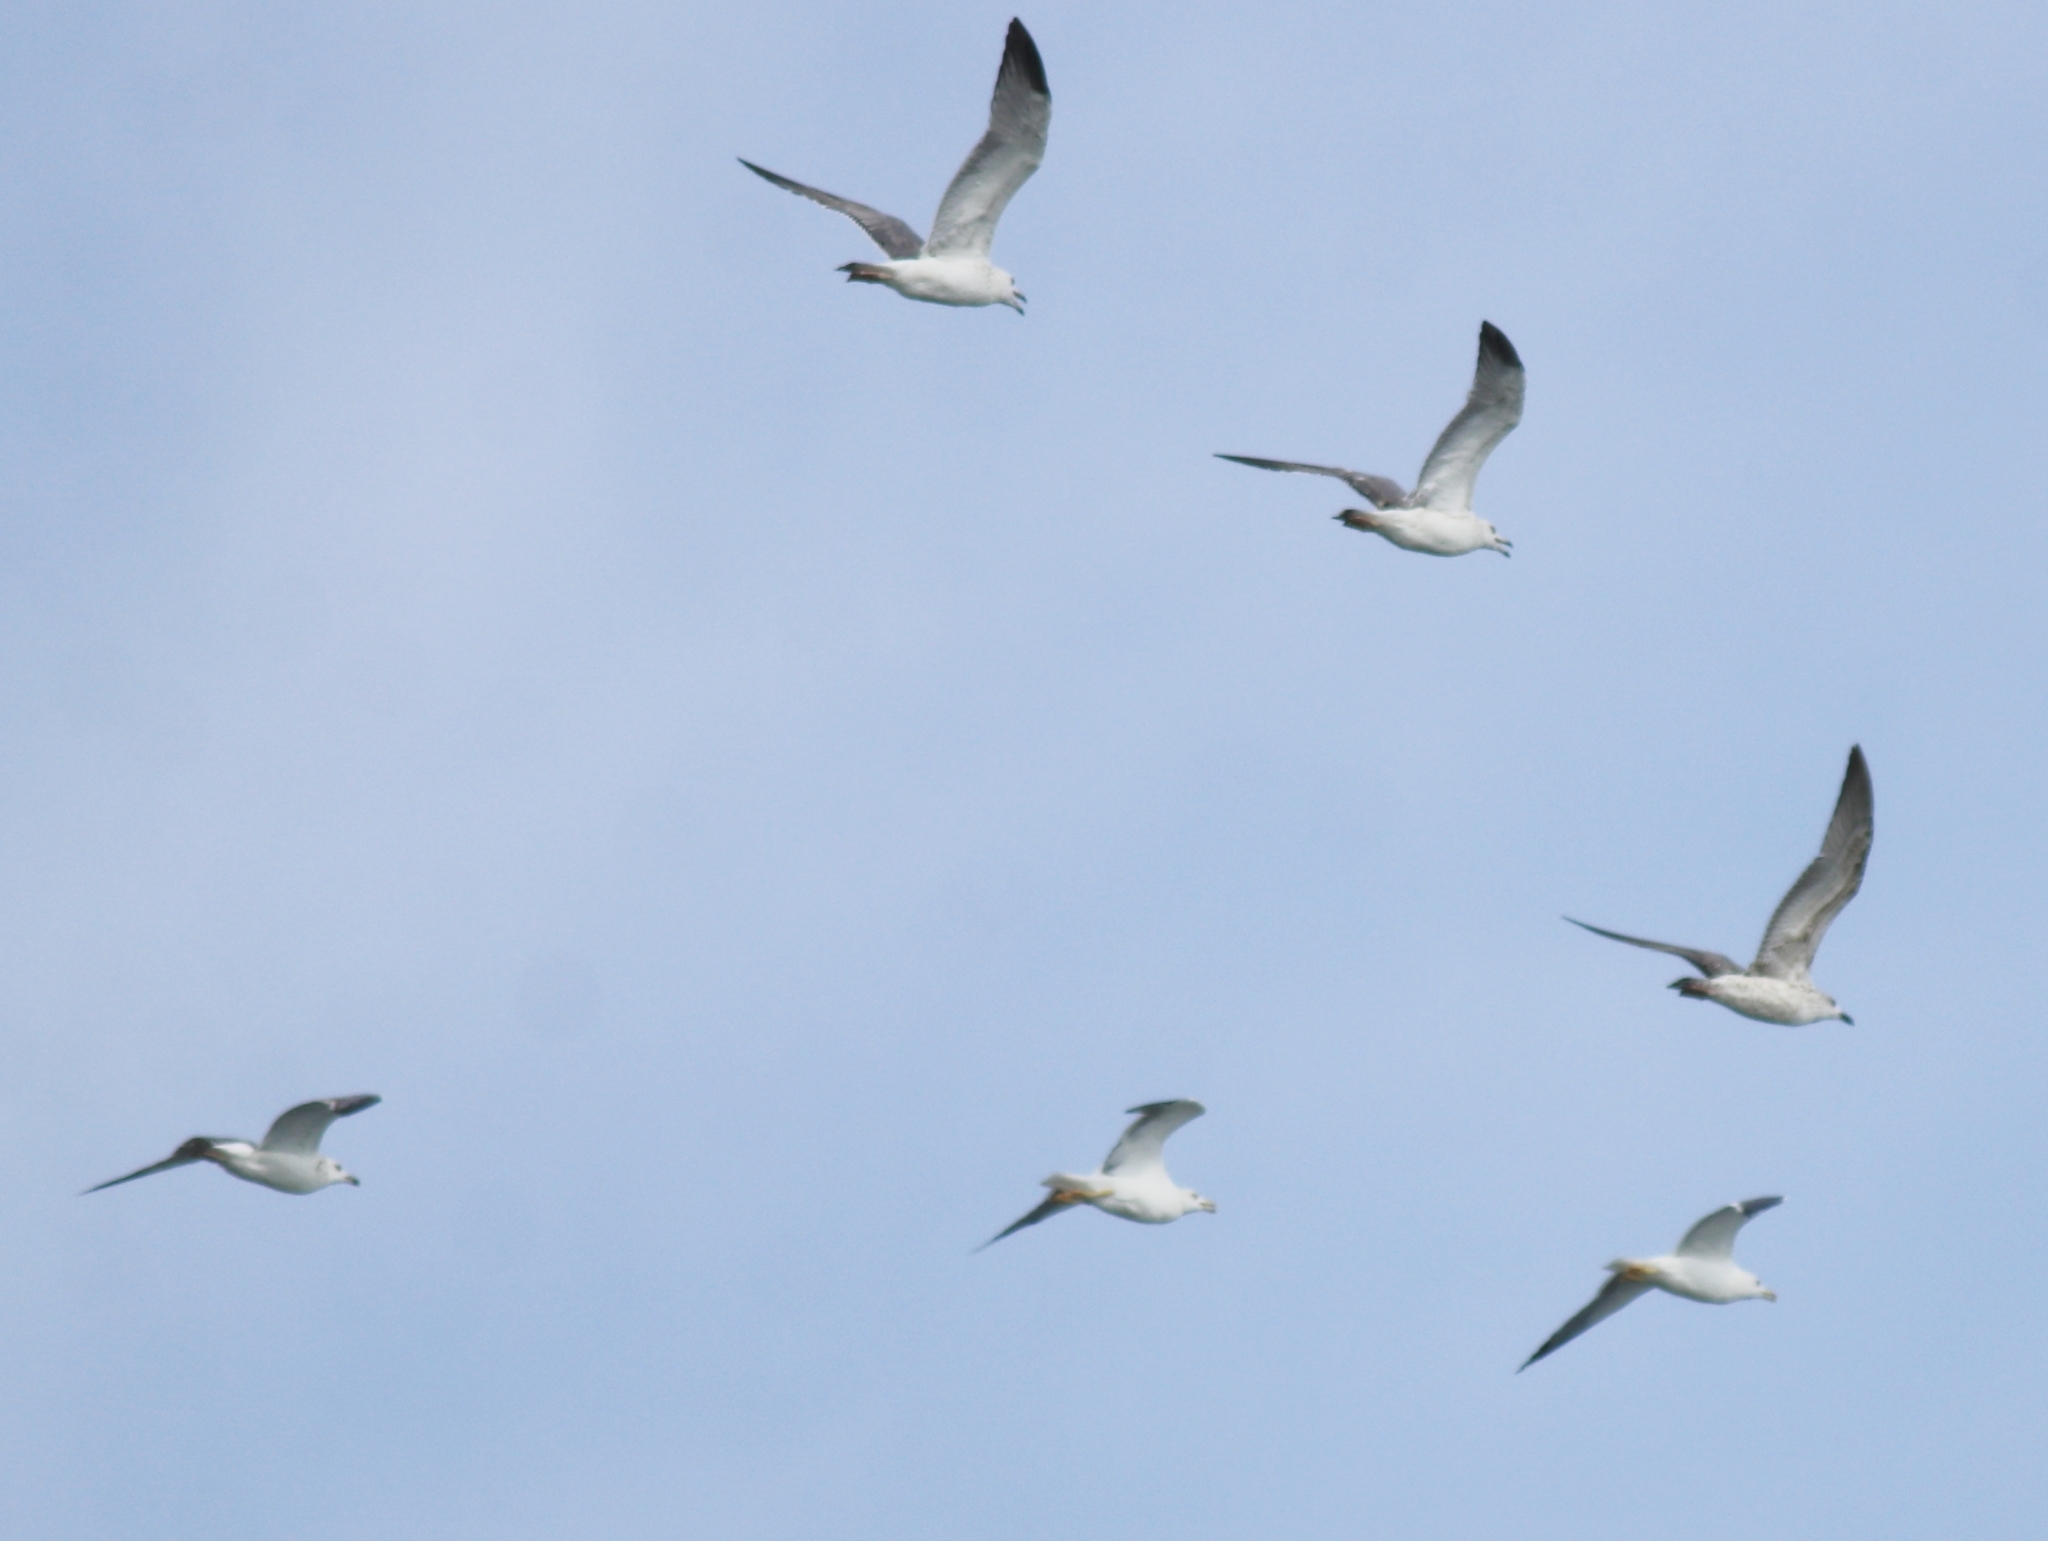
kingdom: Animalia
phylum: Chordata
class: Aves
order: Charadriiformes
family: Laridae
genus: Larus
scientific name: Larus fuscus
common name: Lesser black-backed gull
